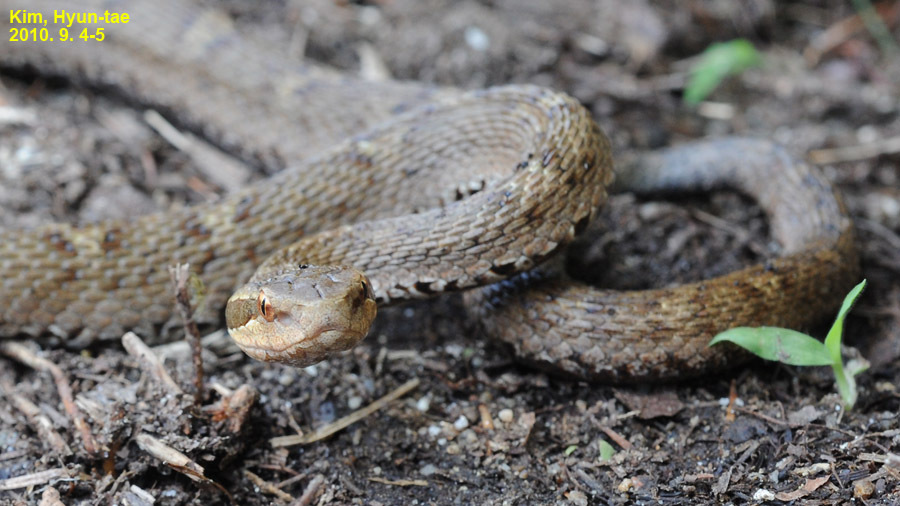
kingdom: Animalia
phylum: Chordata
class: Squamata
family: Viperidae
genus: Gloydius
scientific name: Gloydius ussuriensis
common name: Ussuri mamushi
